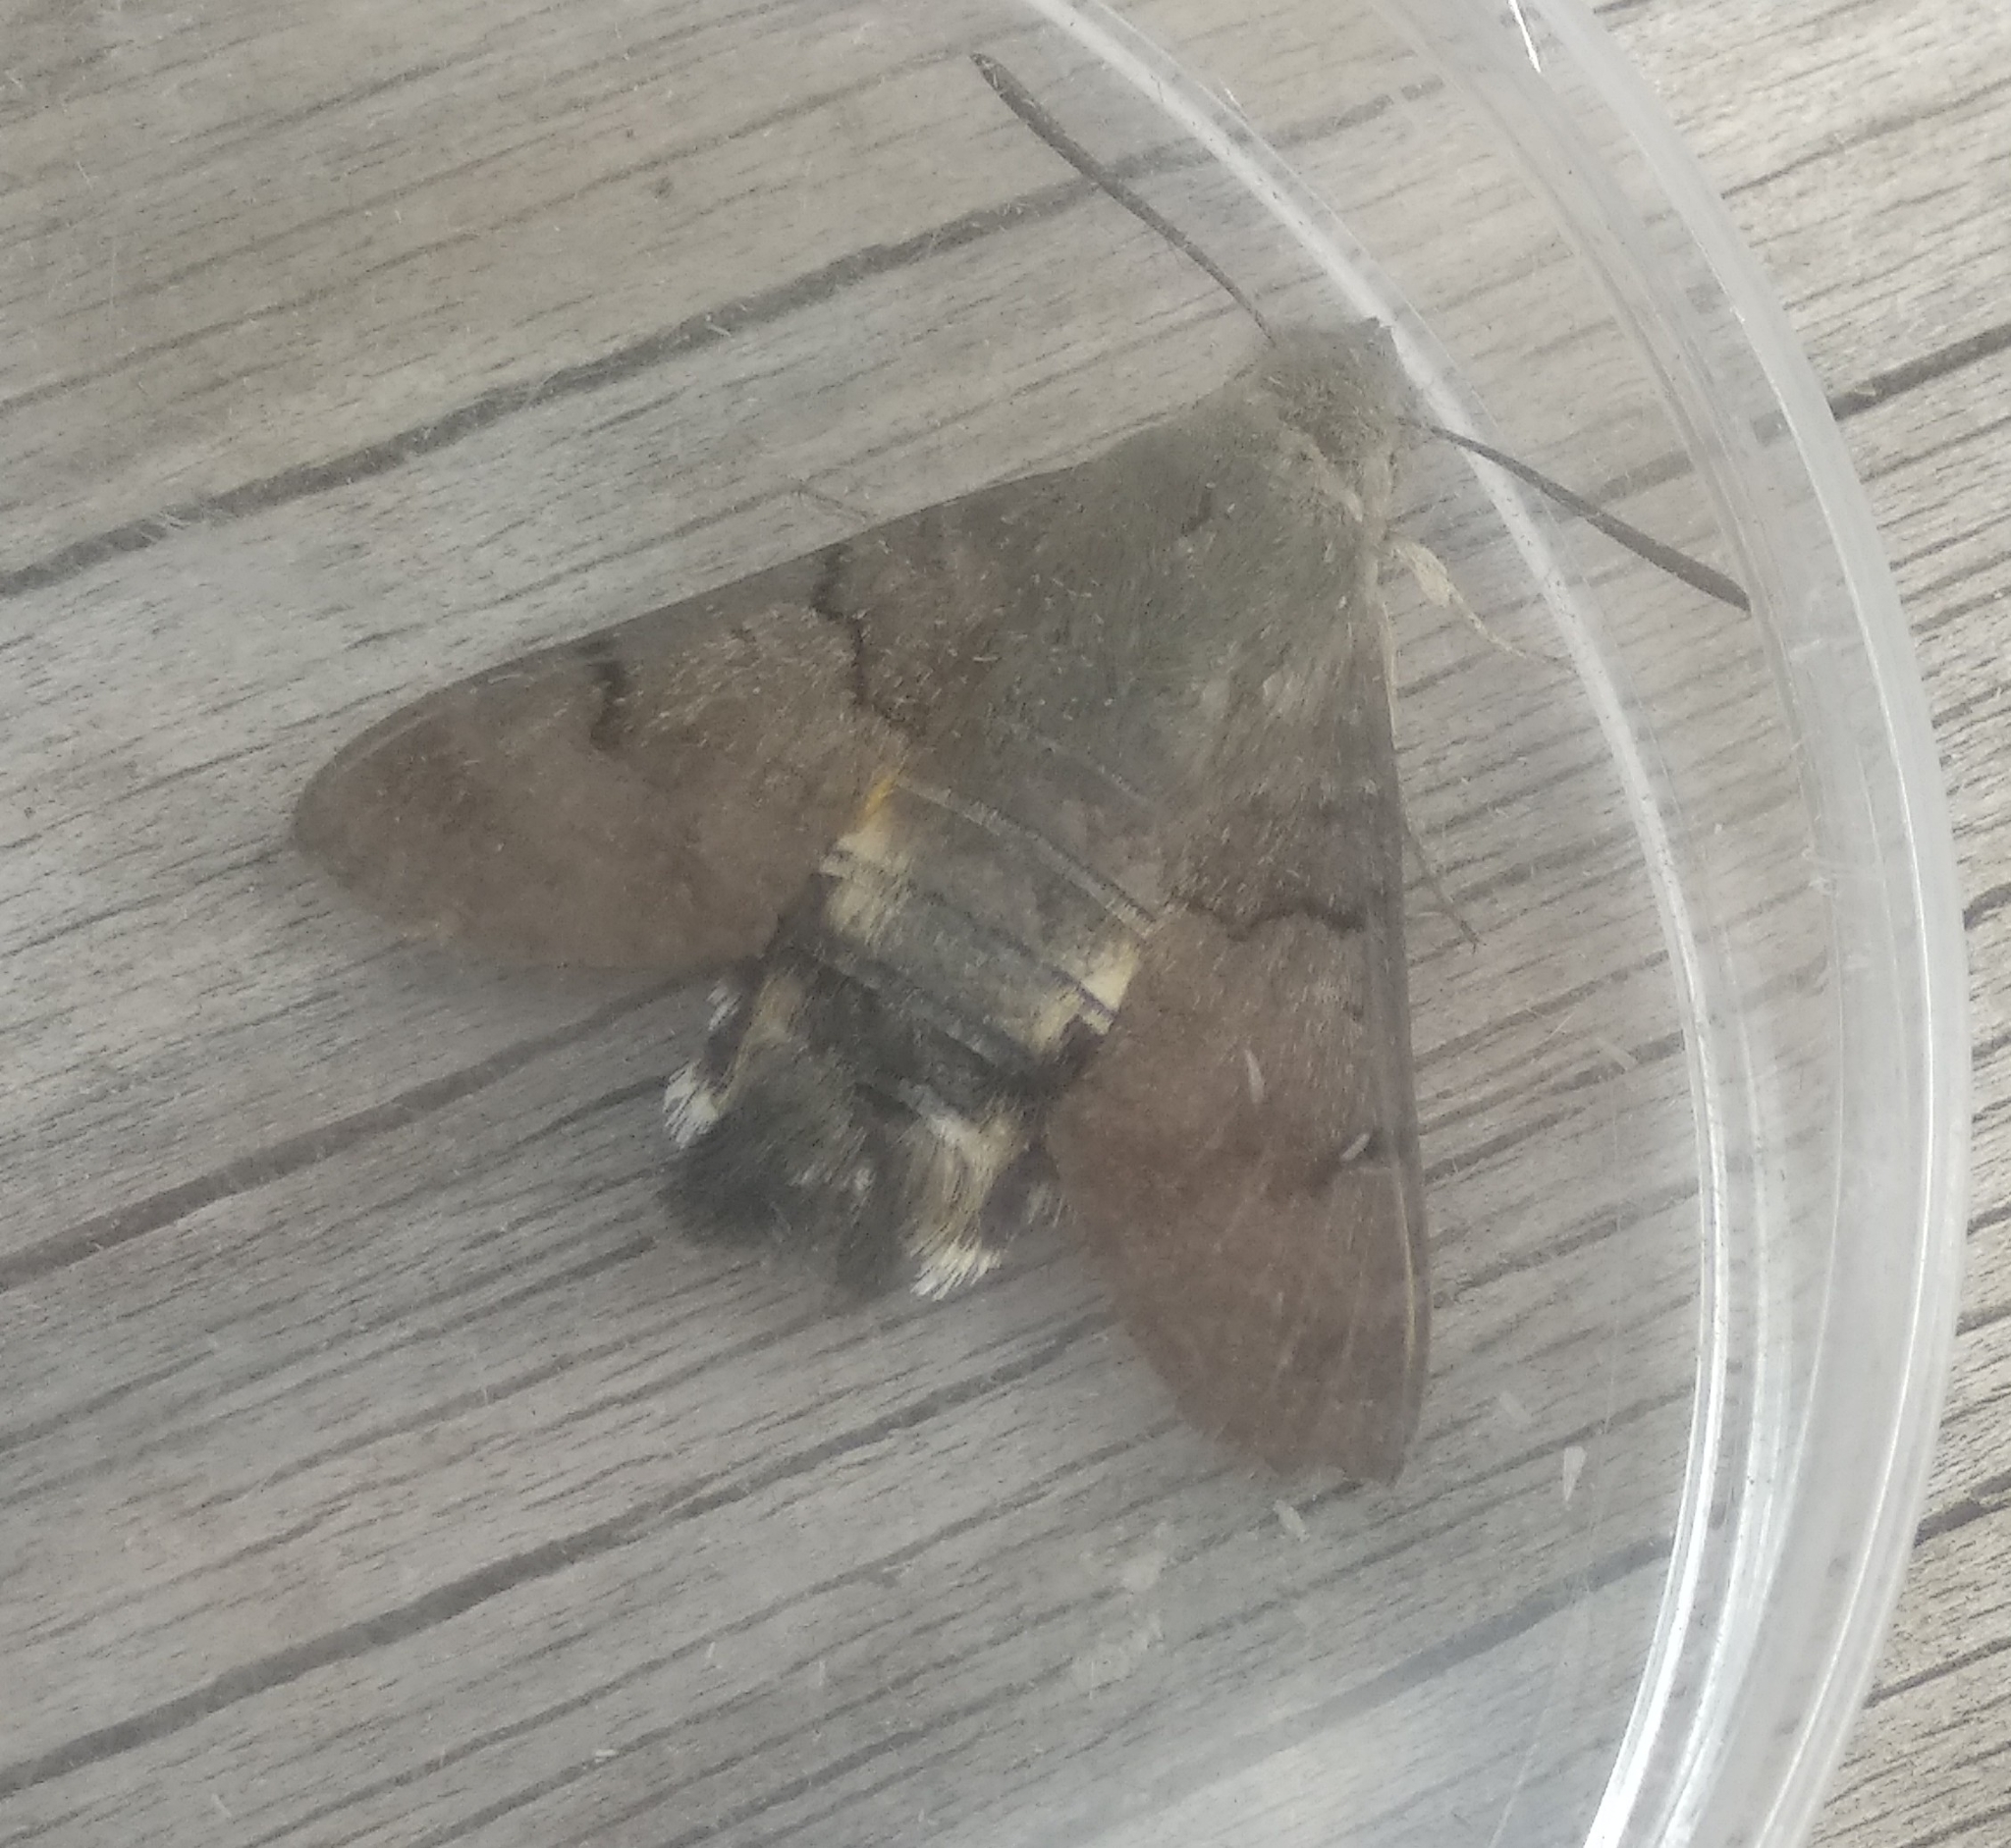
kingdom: Animalia
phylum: Arthropoda
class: Insecta
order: Lepidoptera
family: Sphingidae
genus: Macroglossum
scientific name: Macroglossum stellatarum
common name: Humming-bird hawk-moth
